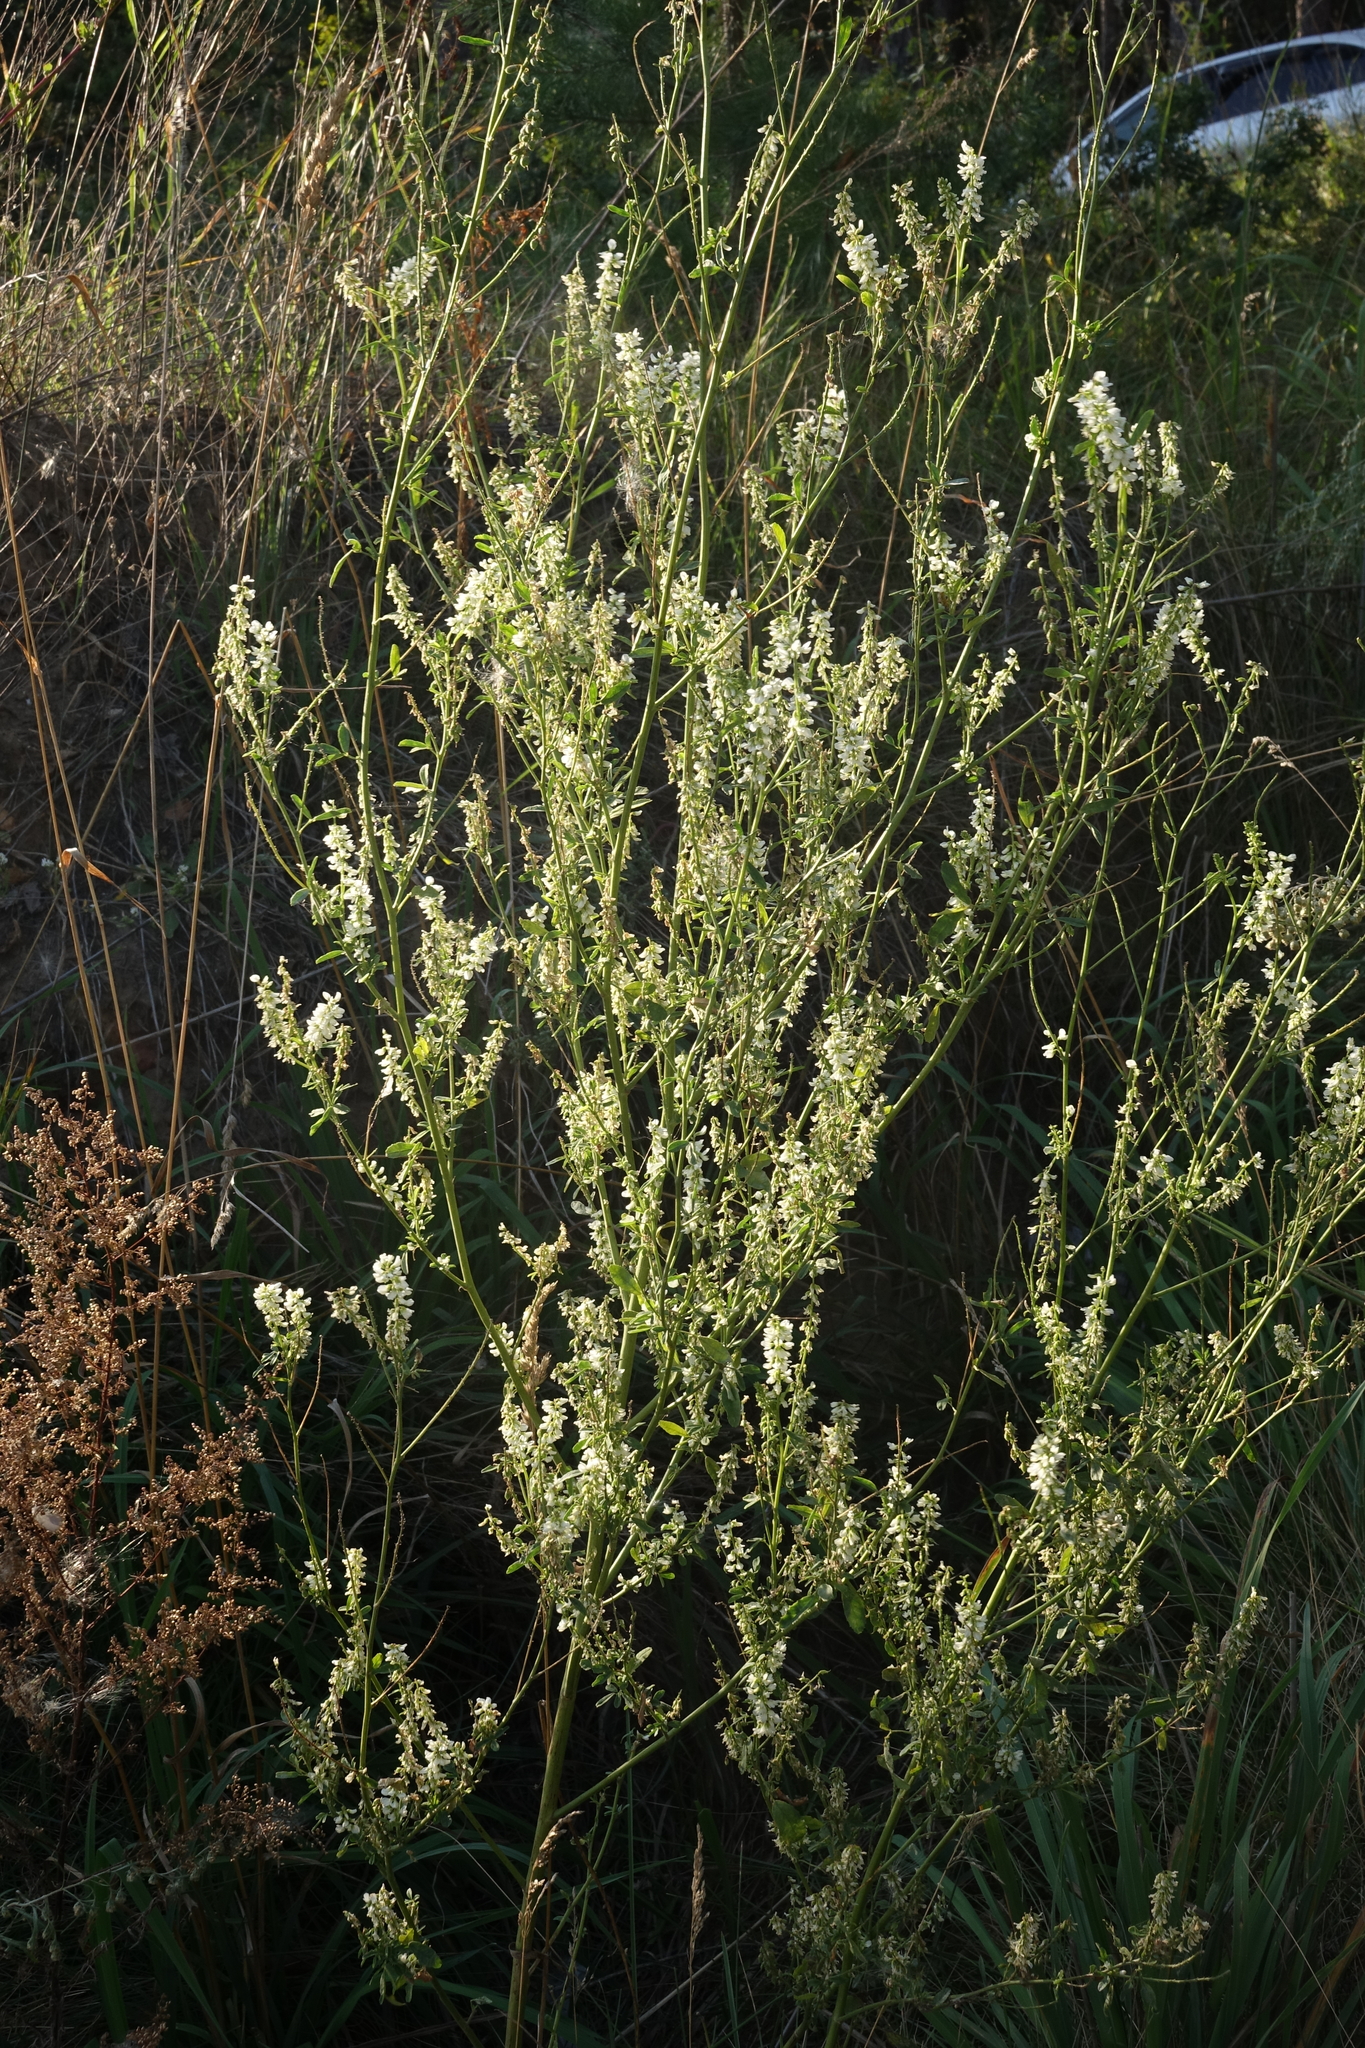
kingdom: Plantae
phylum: Tracheophyta
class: Magnoliopsida
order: Fabales
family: Fabaceae
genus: Melilotus
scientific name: Melilotus albus
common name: White melilot
